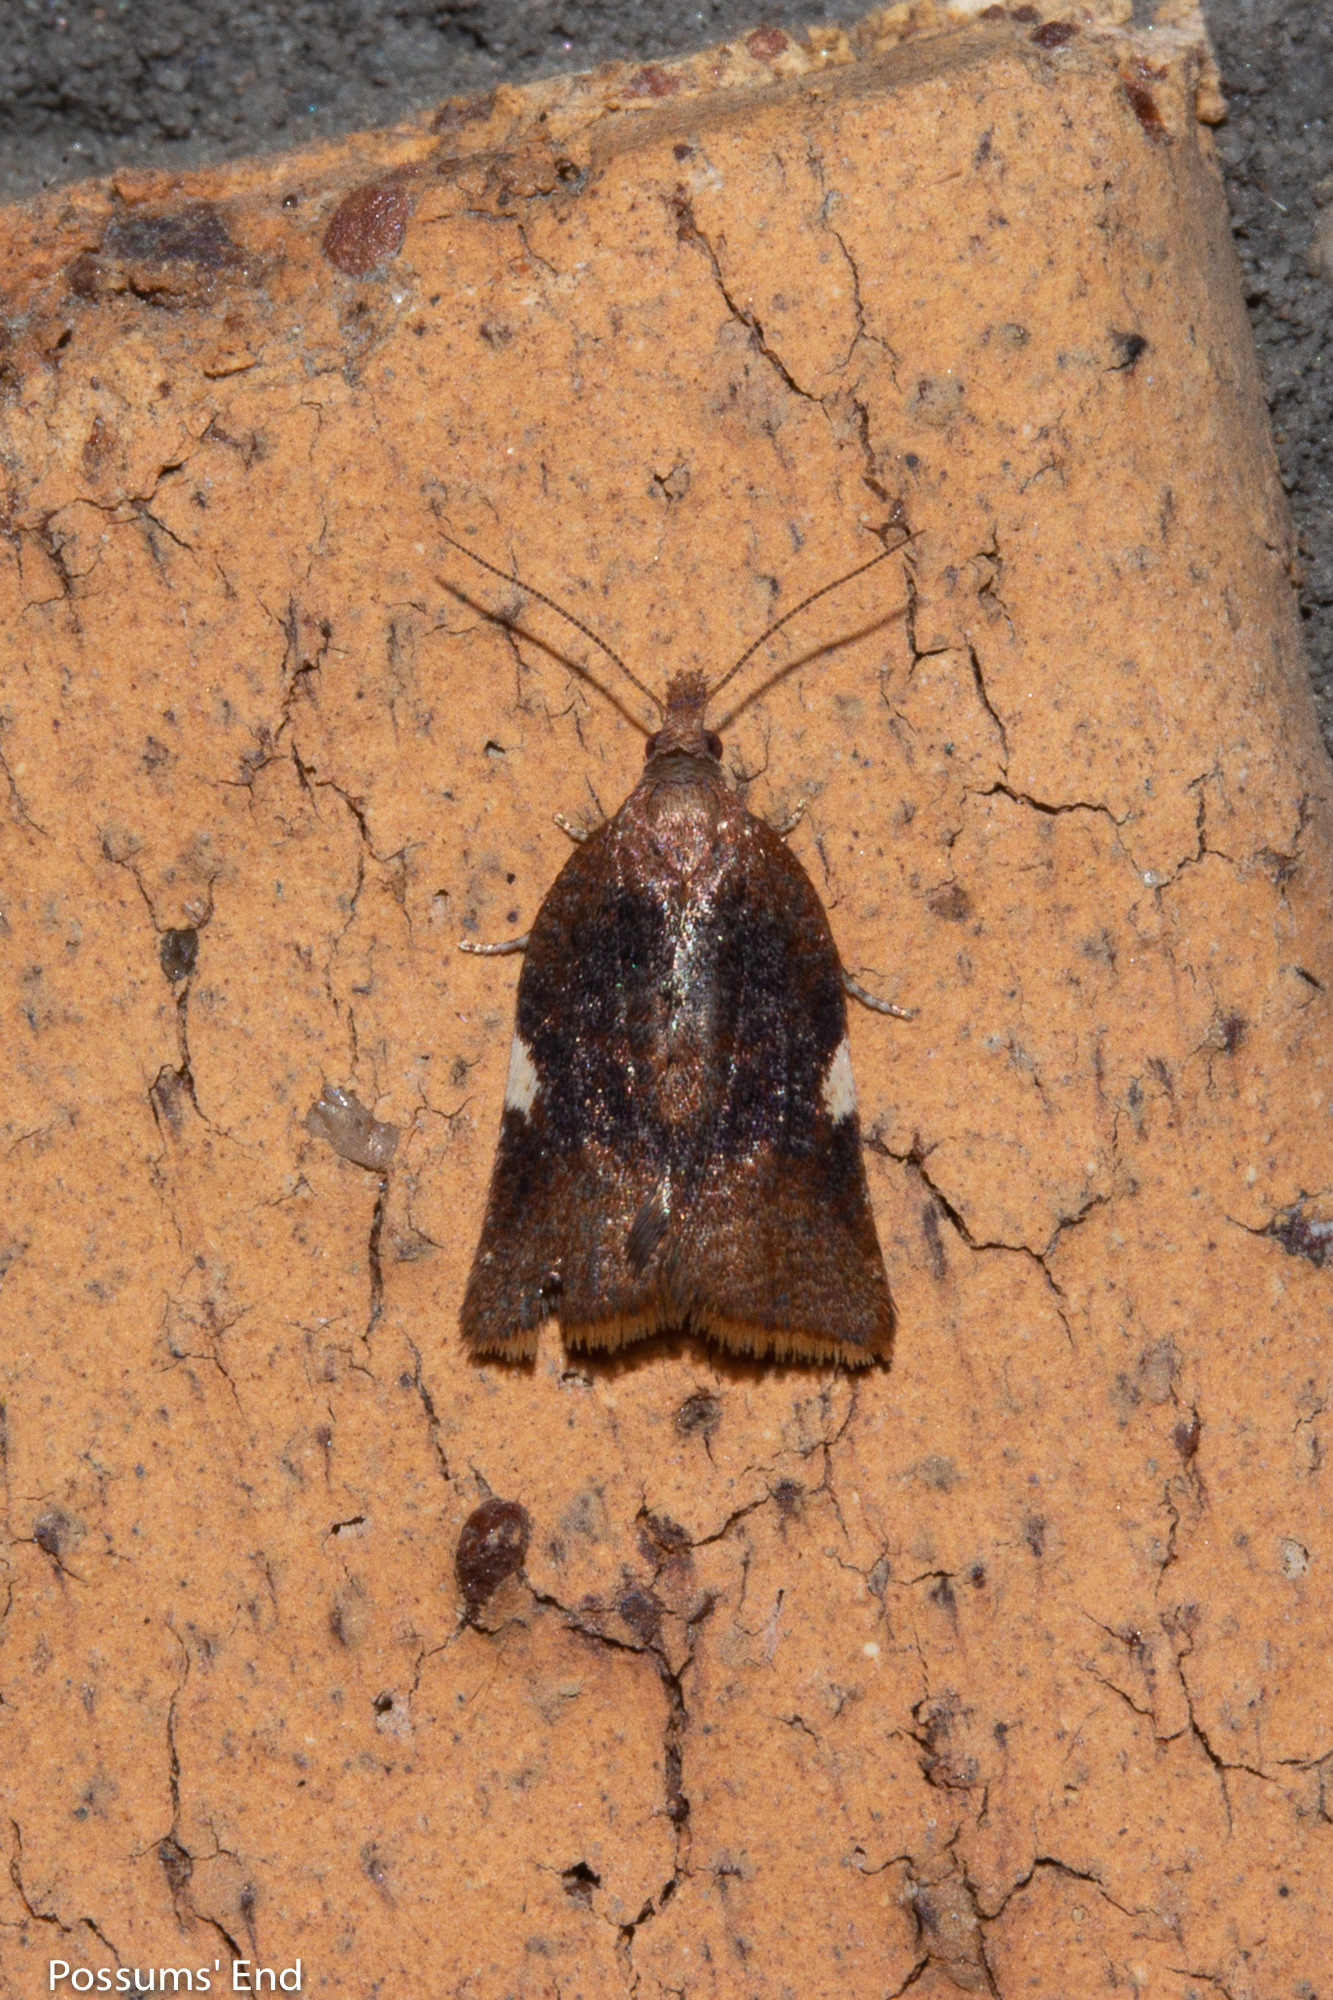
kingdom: Animalia
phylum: Arthropoda
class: Insecta
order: Lepidoptera
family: Tortricidae
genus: Catamacta
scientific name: Catamacta gavisana
